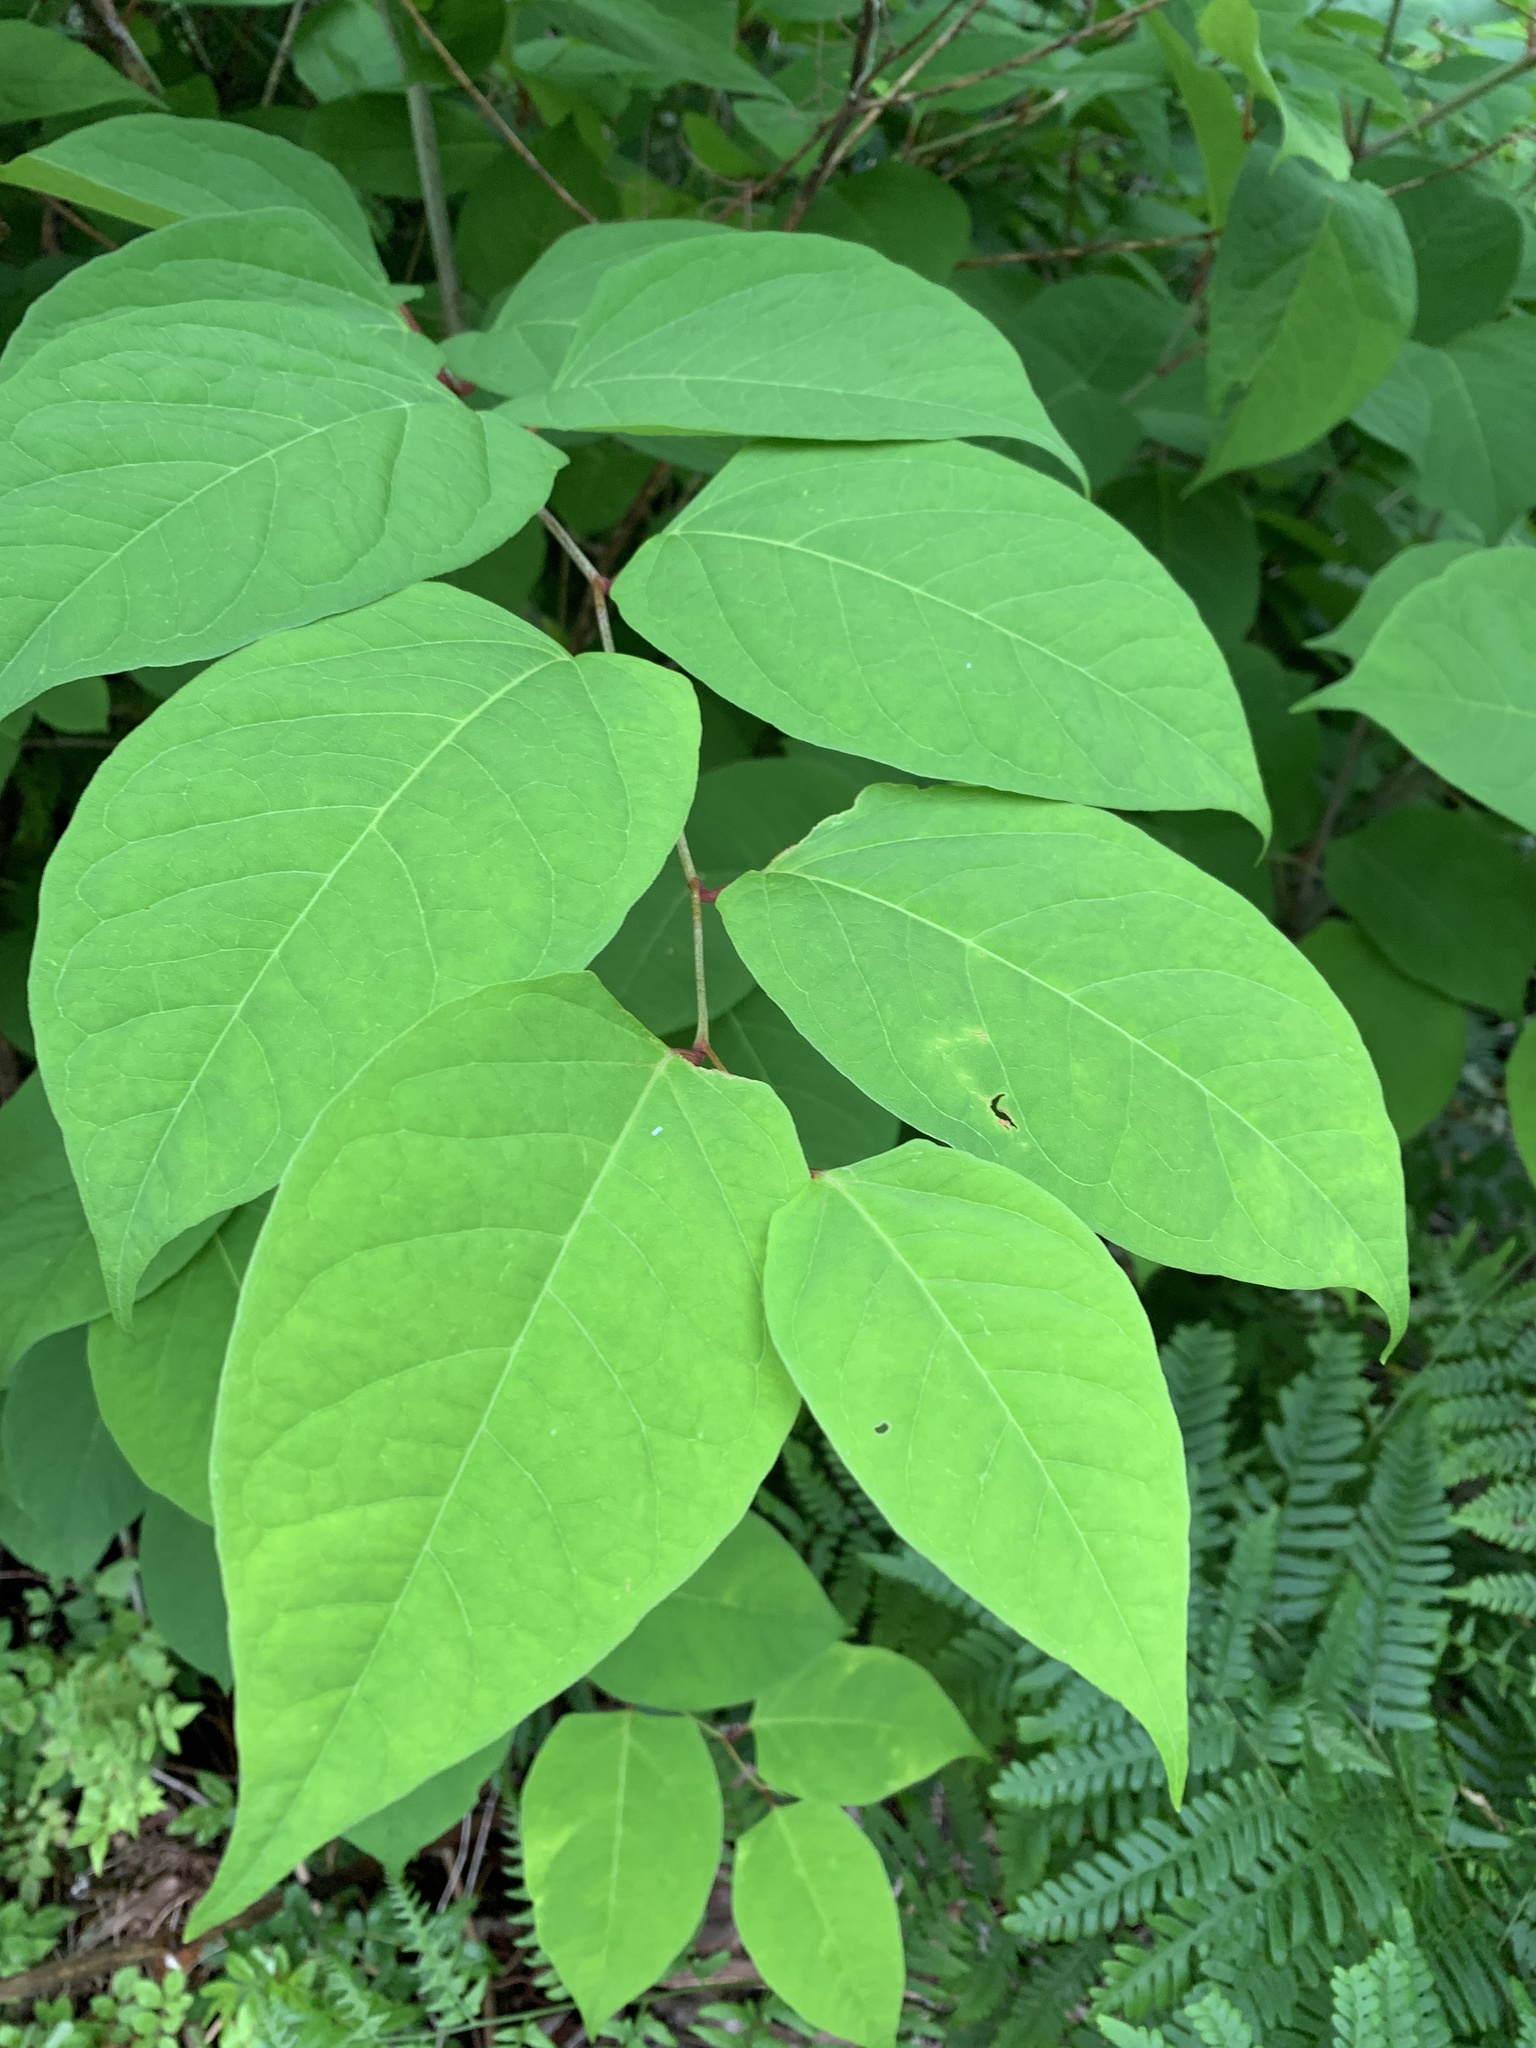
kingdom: Plantae
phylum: Tracheophyta
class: Magnoliopsida
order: Caryophyllales
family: Polygonaceae
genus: Reynoutria
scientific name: Reynoutria japonica
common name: Japanese knotweed
